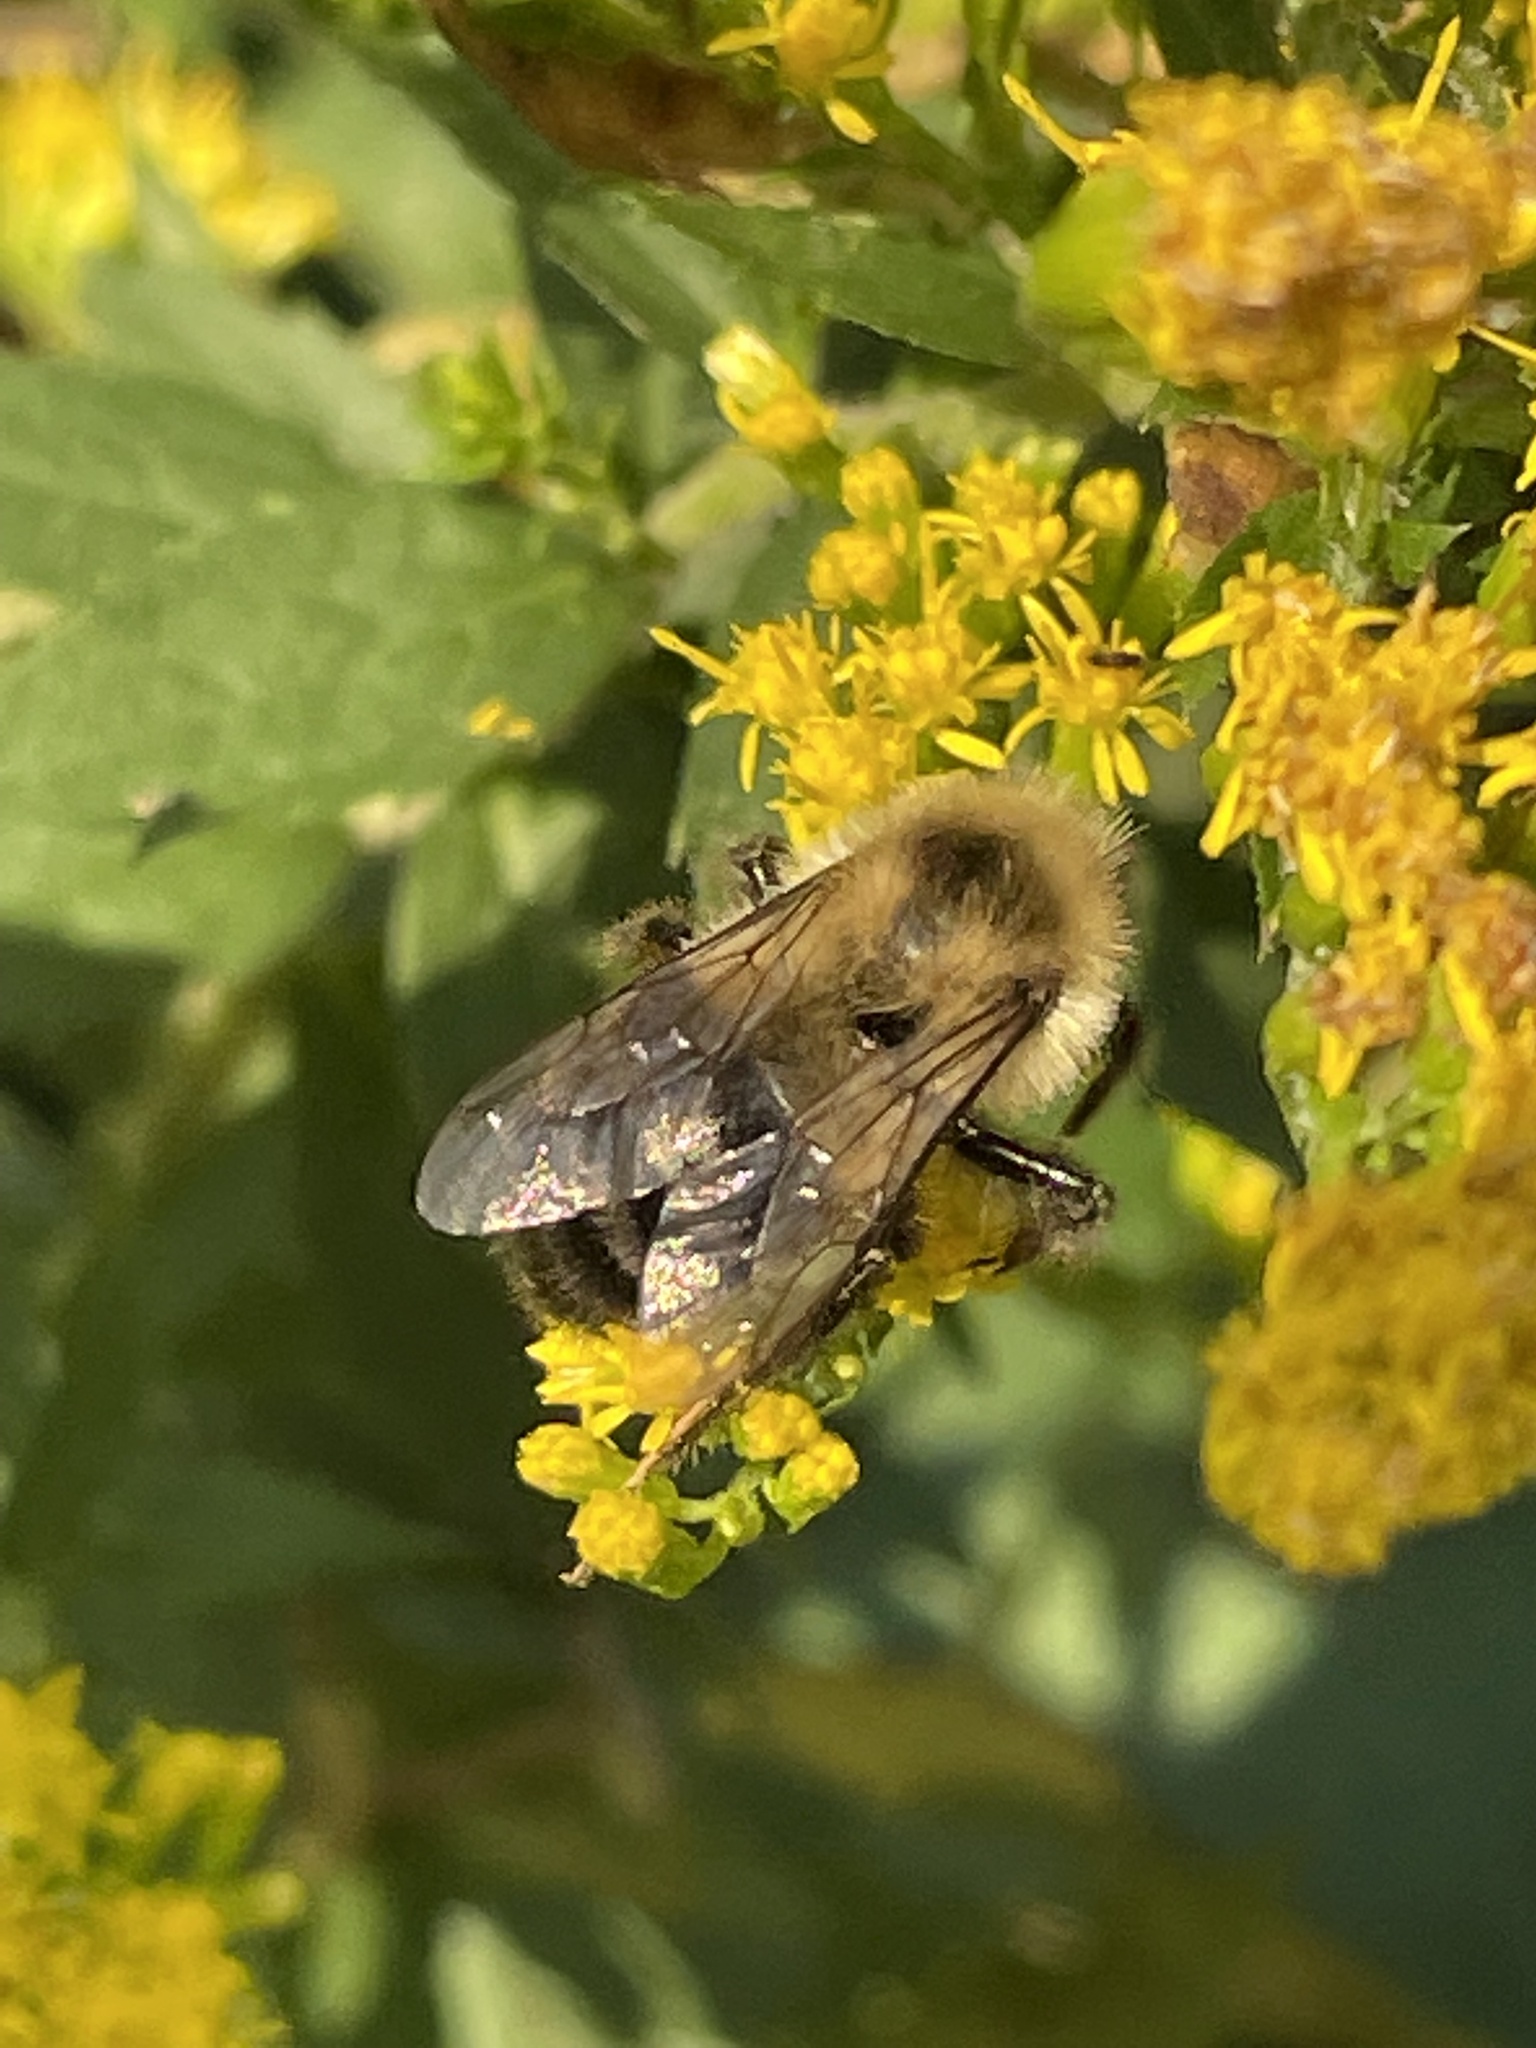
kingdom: Animalia
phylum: Arthropoda
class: Insecta
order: Hymenoptera
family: Apidae
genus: Bombus
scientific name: Bombus impatiens
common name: Common eastern bumble bee
